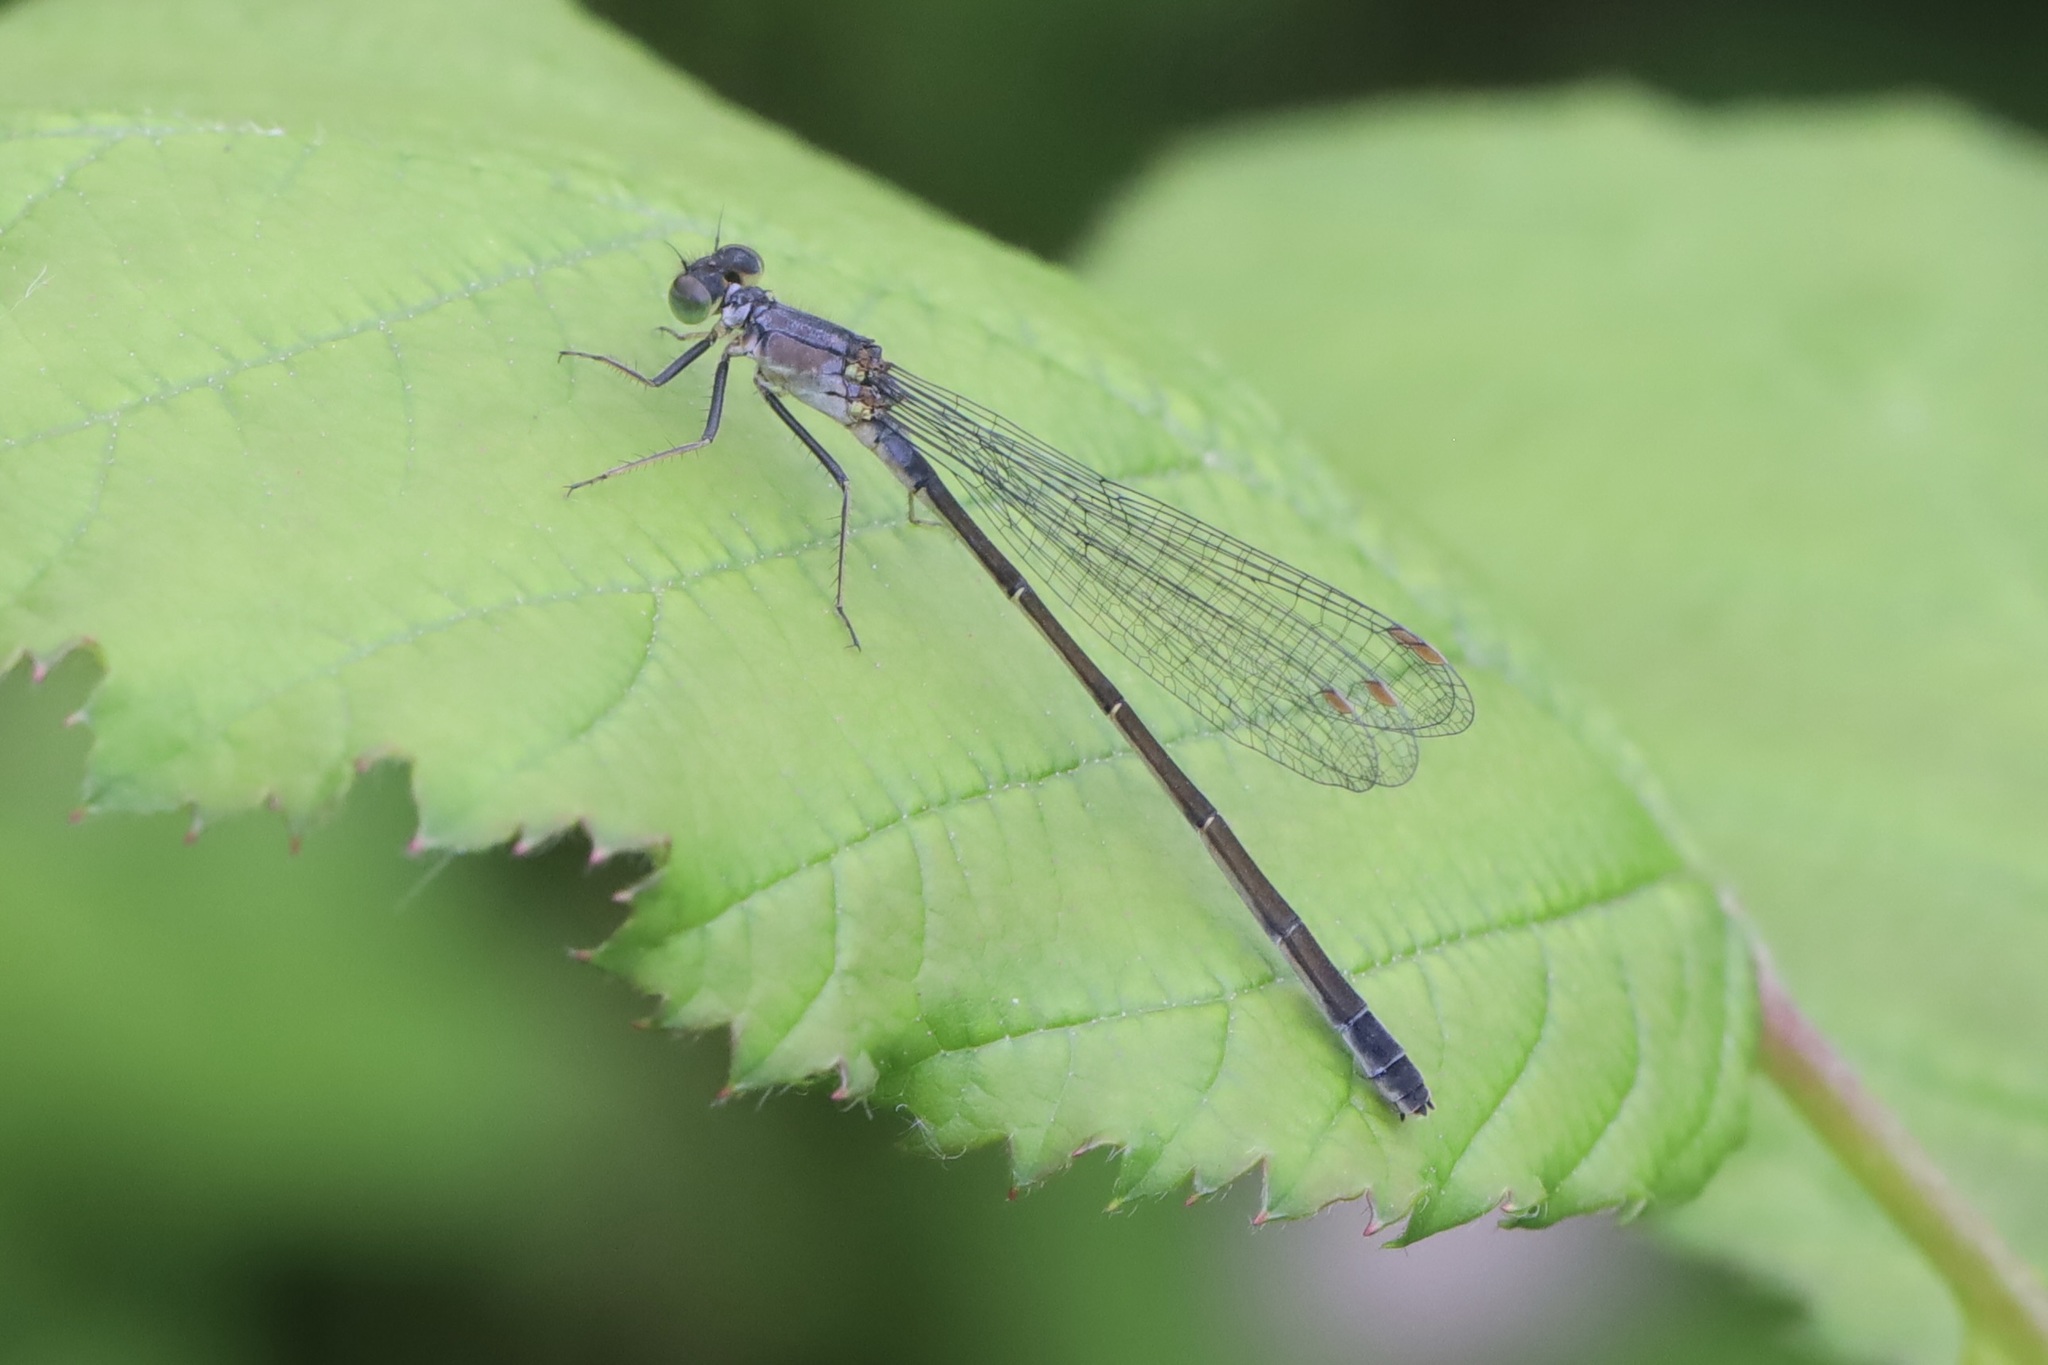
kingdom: Animalia
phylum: Arthropoda
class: Insecta
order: Odonata
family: Coenagrionidae
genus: Ischnura
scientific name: Ischnura cervula
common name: Pacific forktail
